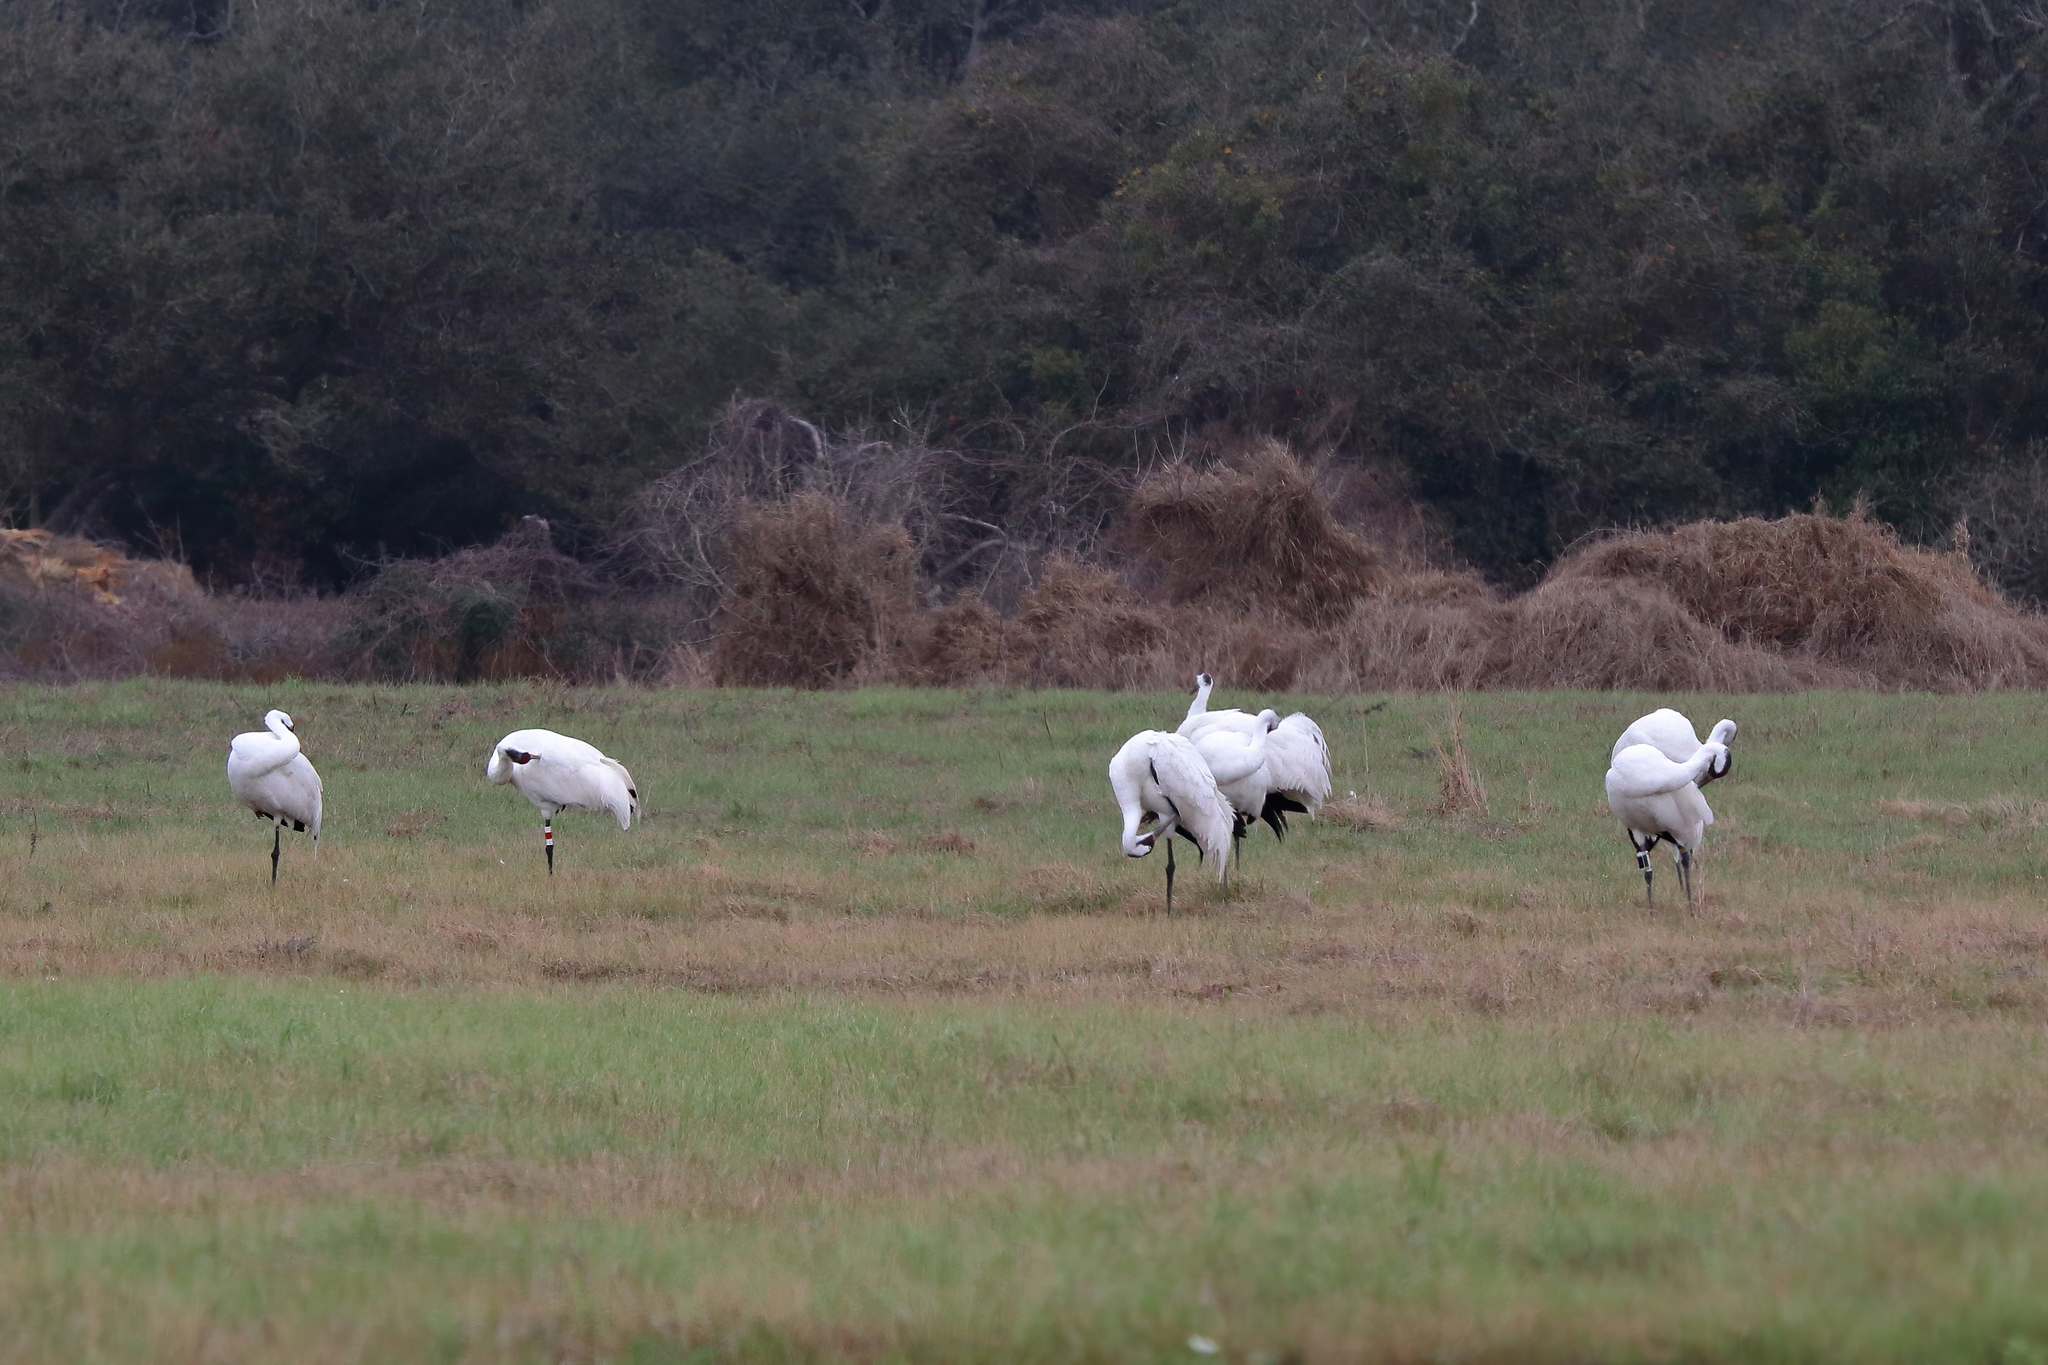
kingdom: Animalia
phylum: Chordata
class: Aves
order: Gruiformes
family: Gruidae
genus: Grus
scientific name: Grus americana
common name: Whooping crane
